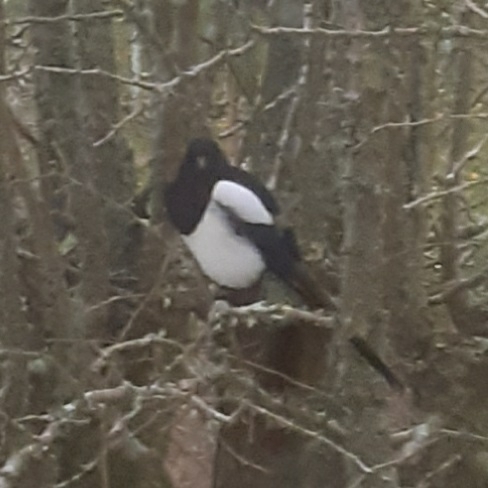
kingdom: Animalia
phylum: Chordata
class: Aves
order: Passeriformes
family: Corvidae
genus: Pica
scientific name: Pica pica
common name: Eurasian magpie
